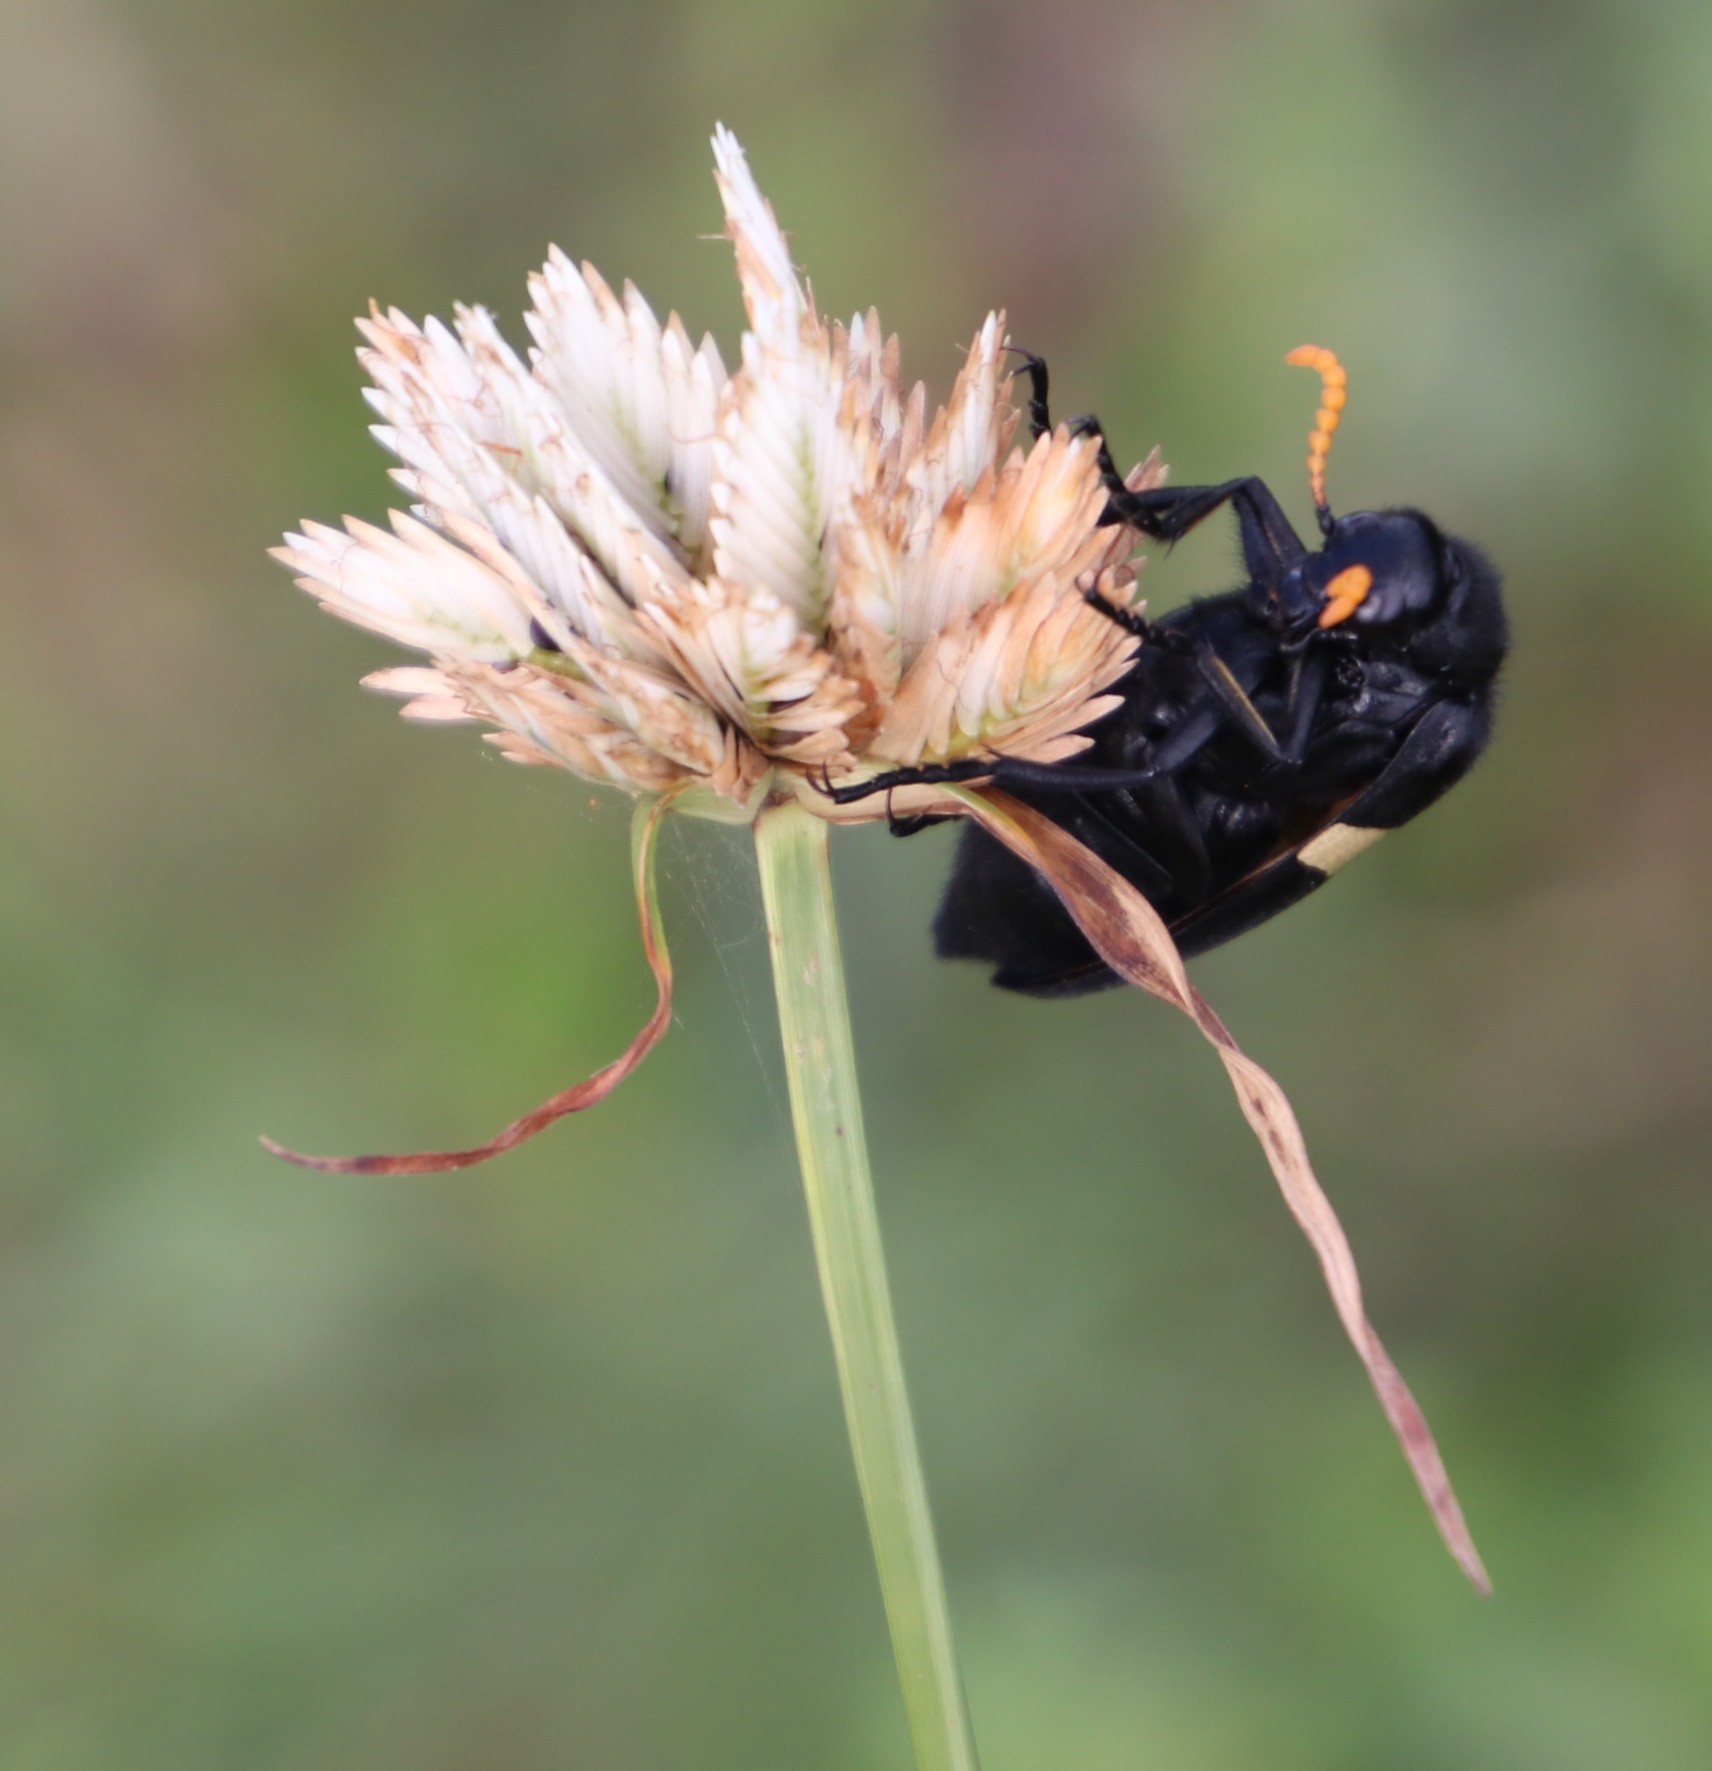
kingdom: Plantae
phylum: Tracheophyta
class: Liliopsida
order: Poales
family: Cyperaceae
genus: Cyperus
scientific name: Cyperus niveus
